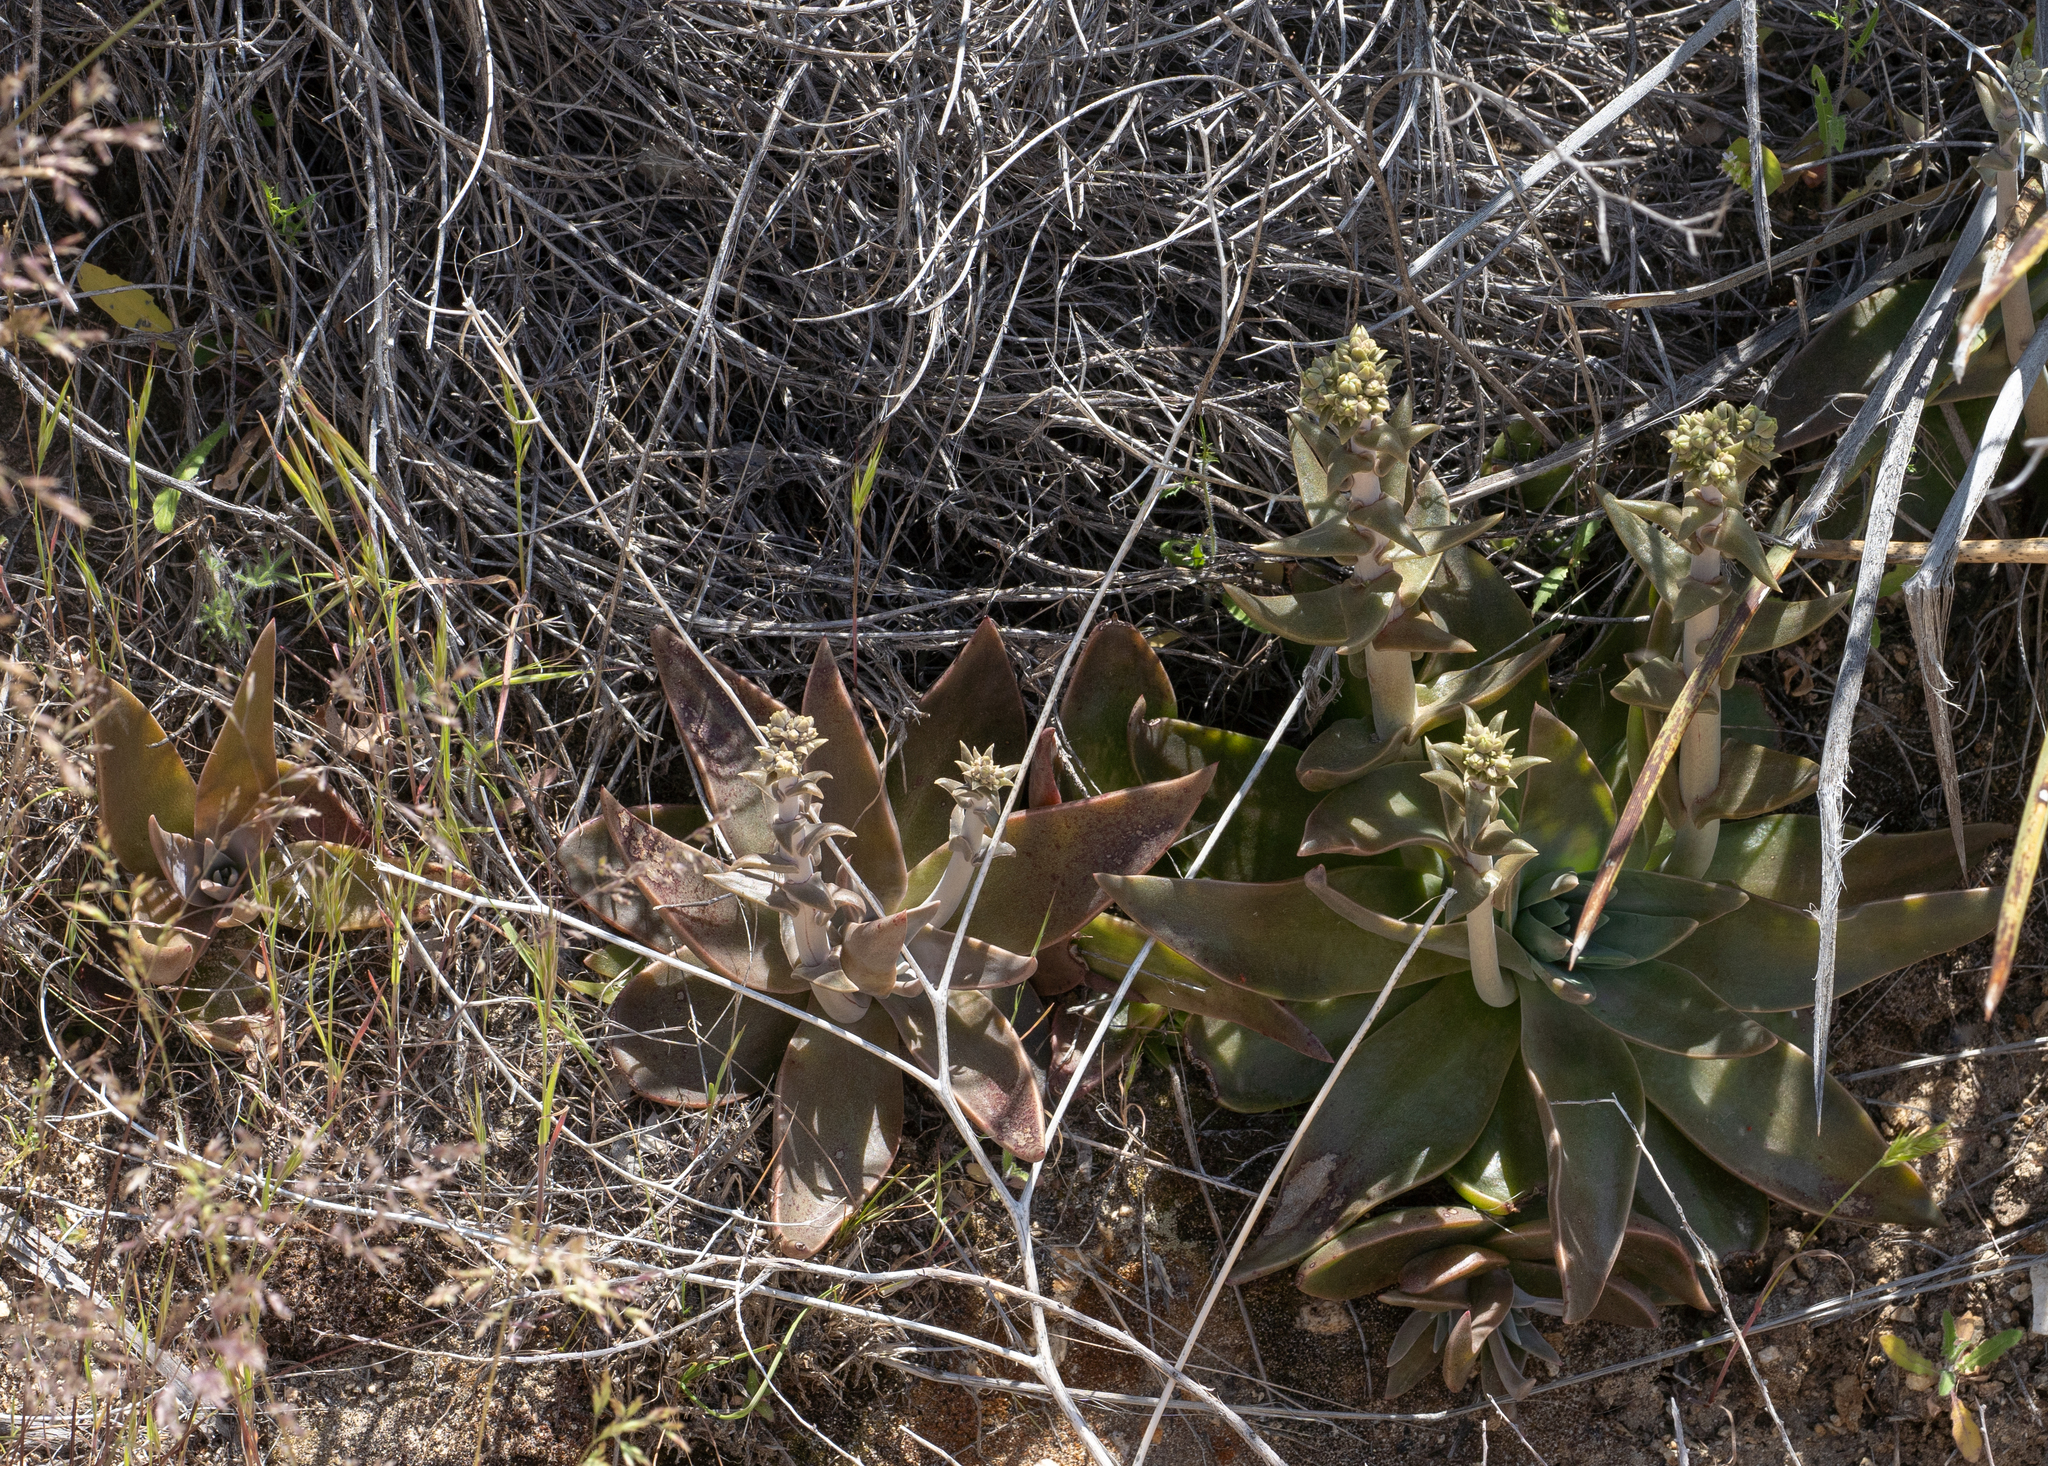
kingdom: Plantae
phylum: Tracheophyta
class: Magnoliopsida
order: Saxifragales
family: Crassulaceae
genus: Dudleya
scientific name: Dudleya lanceolata
